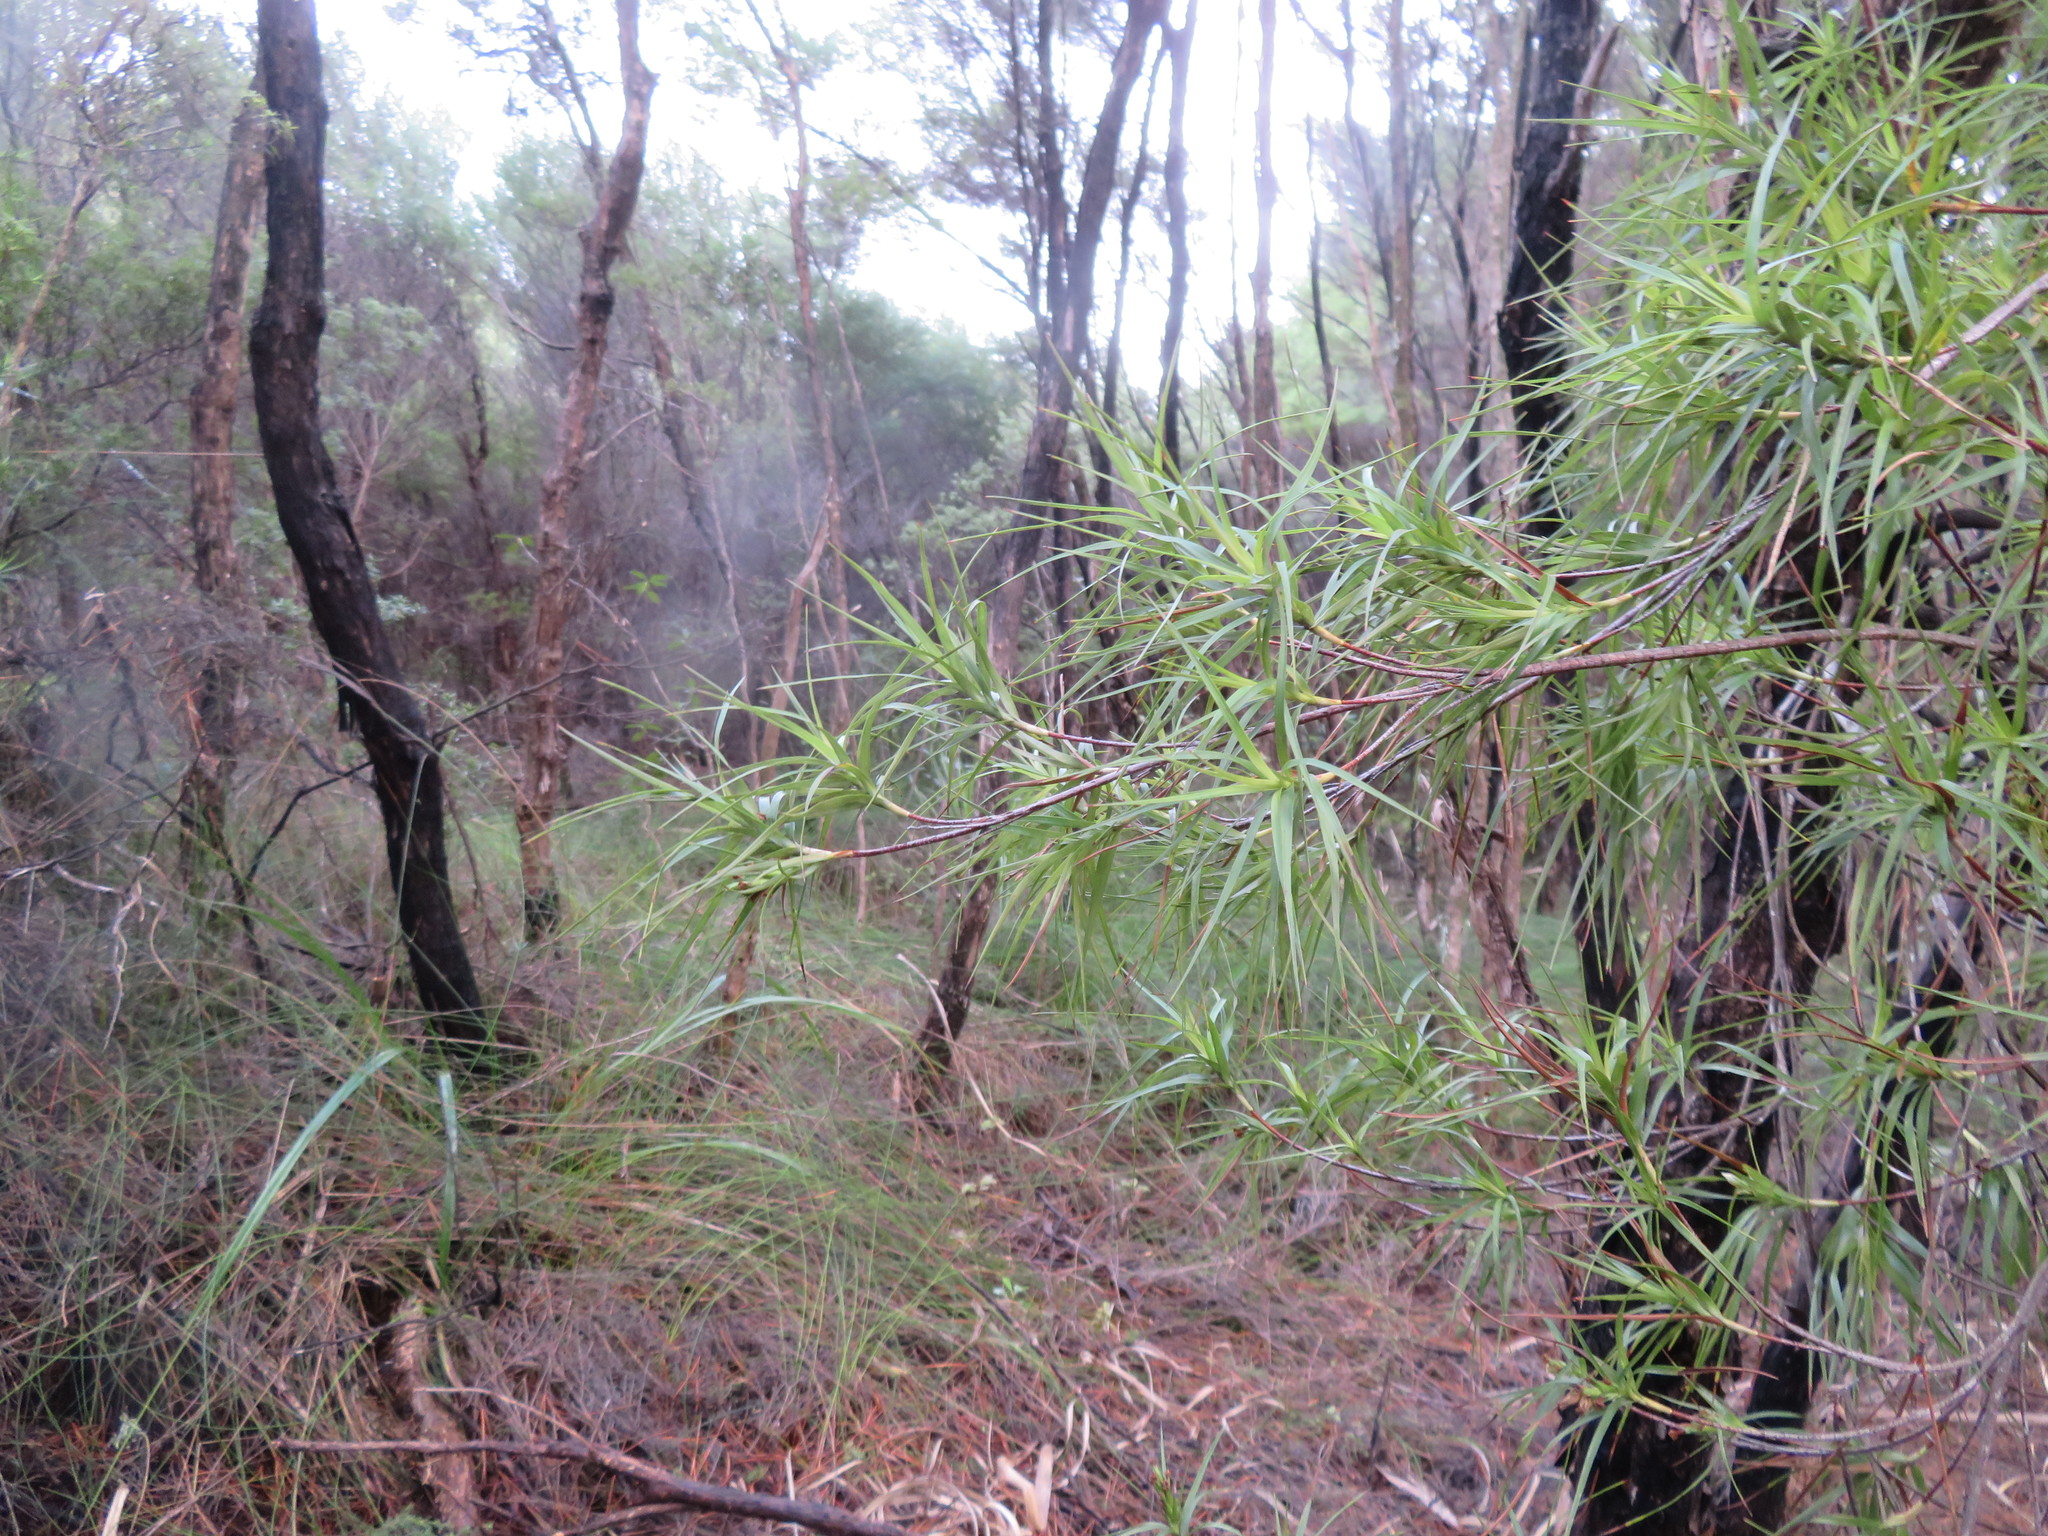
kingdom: Plantae
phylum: Tracheophyta
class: Magnoliopsida
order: Ericales
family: Ericaceae
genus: Dracophyllum
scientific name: Dracophyllum sinclairii
